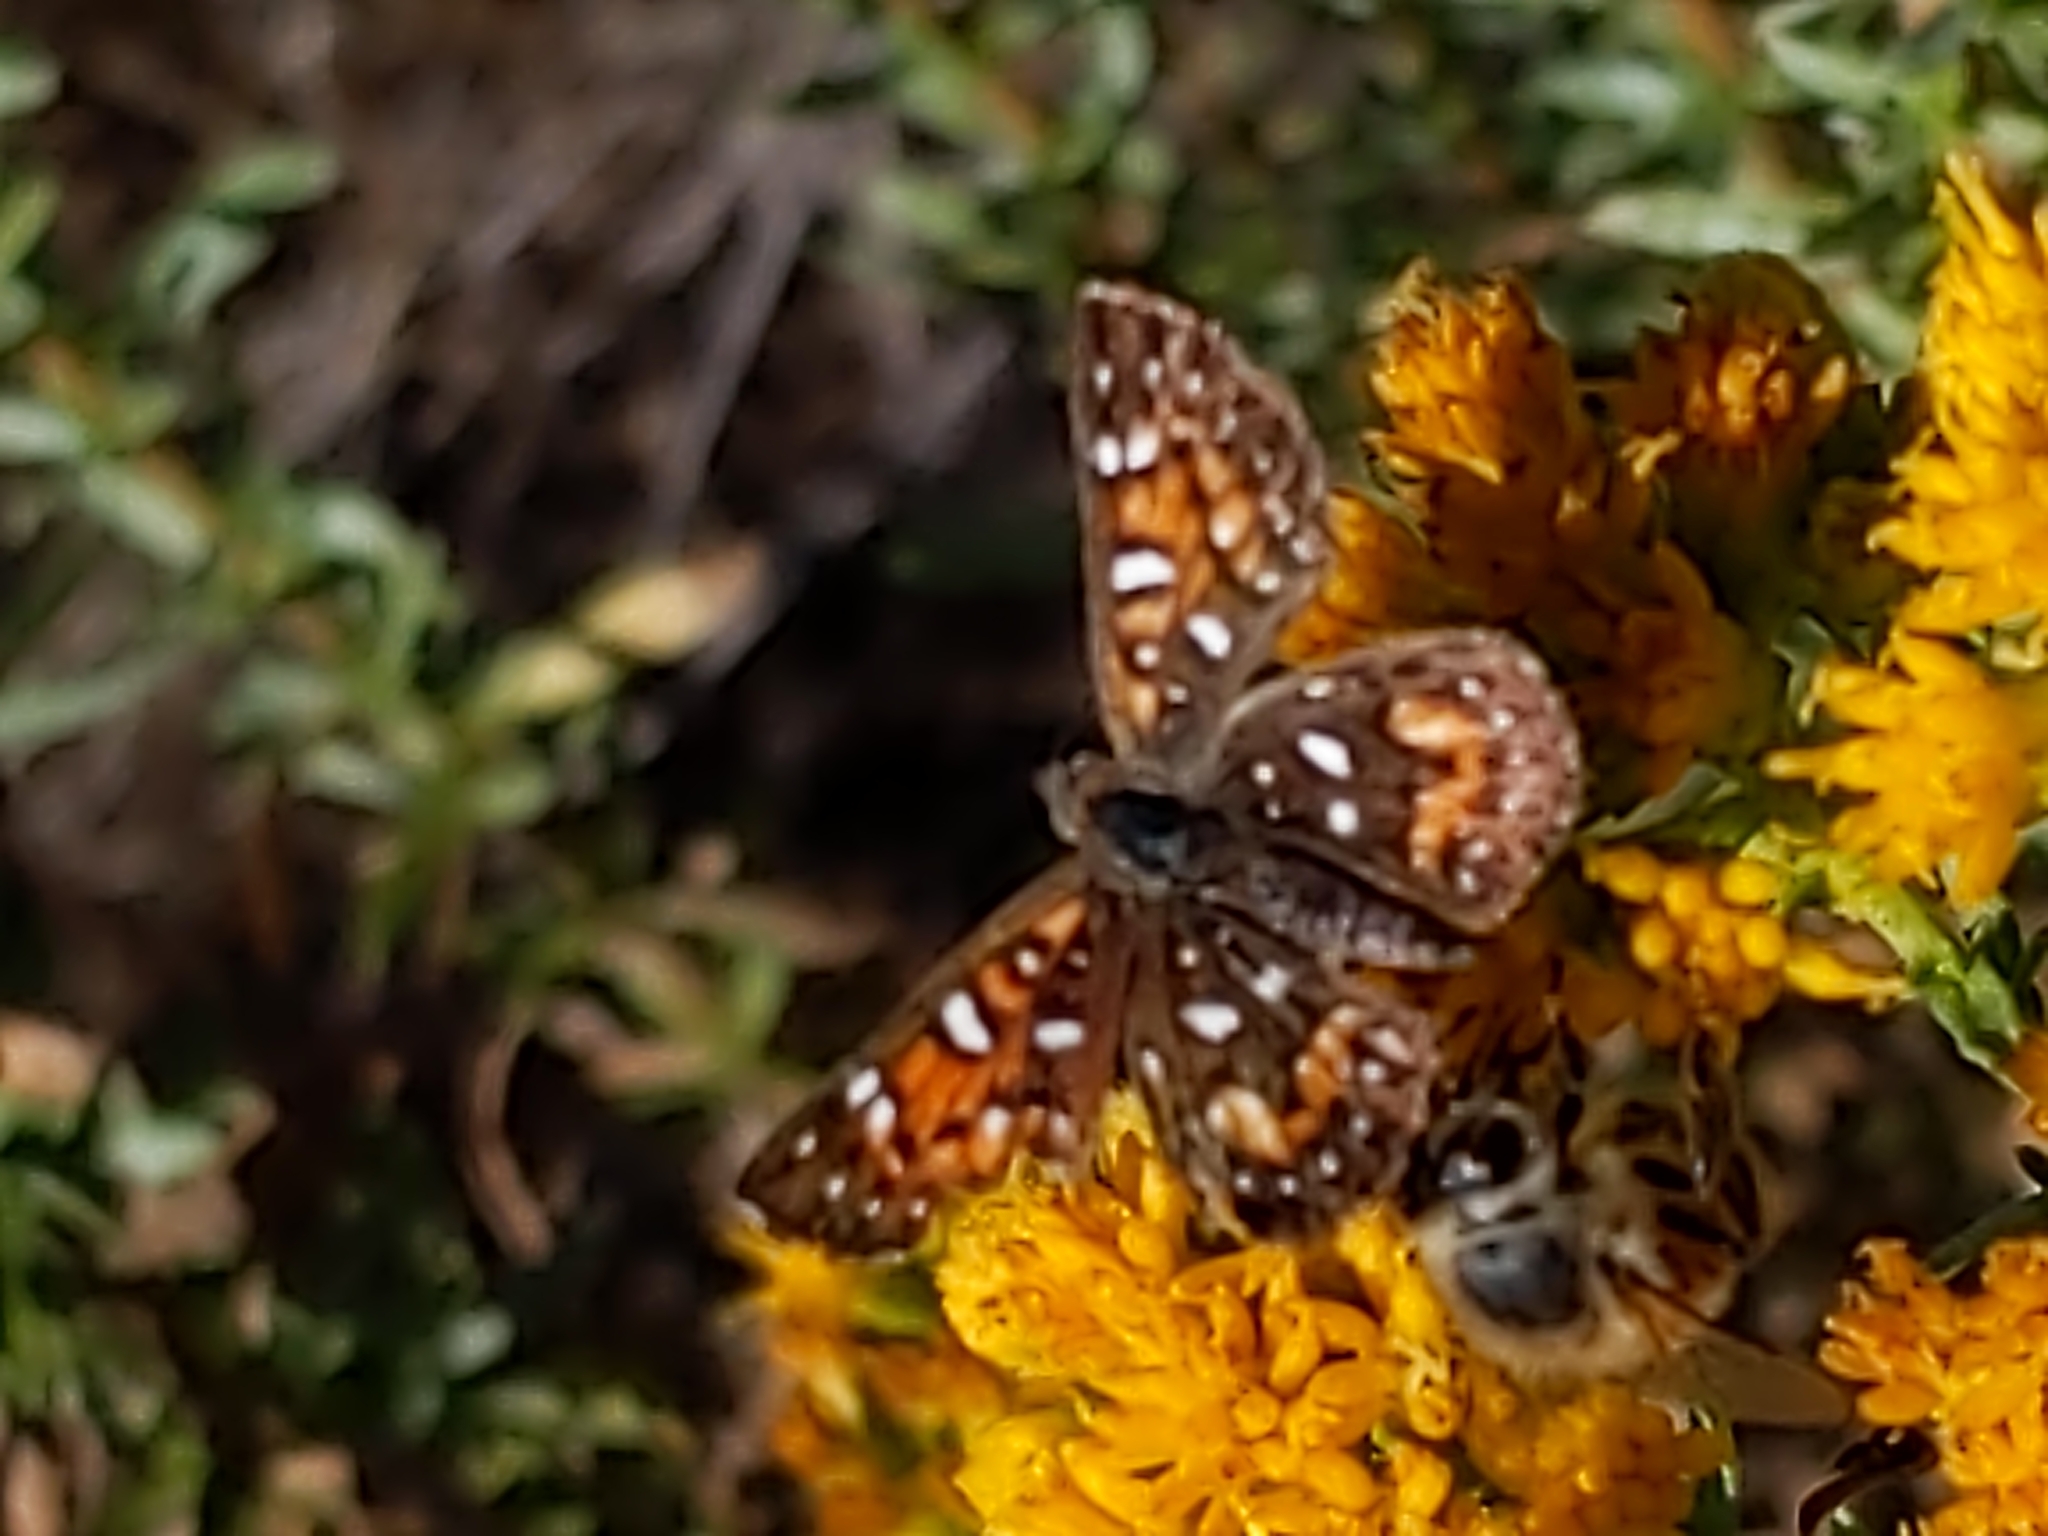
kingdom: Animalia
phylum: Arthropoda
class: Insecta
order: Lepidoptera
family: Riodinidae
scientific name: Riodinidae
